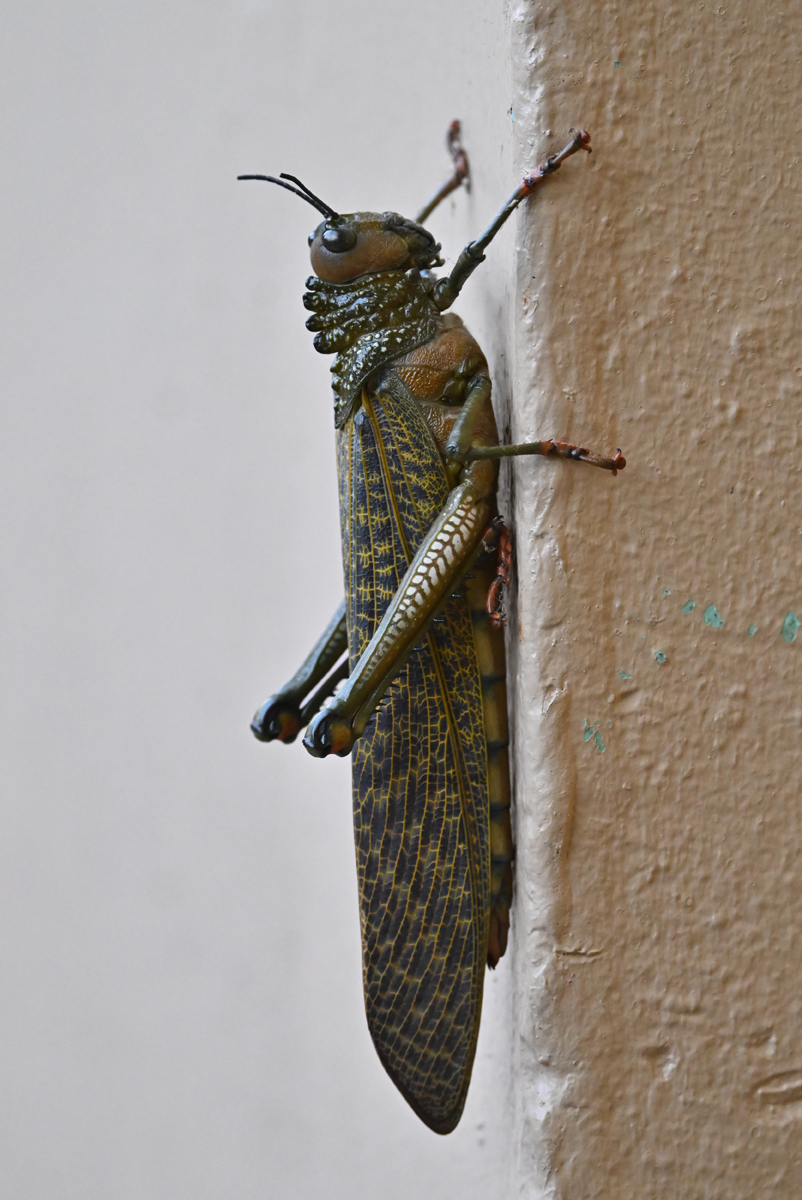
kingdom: Animalia
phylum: Arthropoda
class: Insecta
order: Orthoptera
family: Romaleidae
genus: Tropidacris
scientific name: Tropidacris cristata
